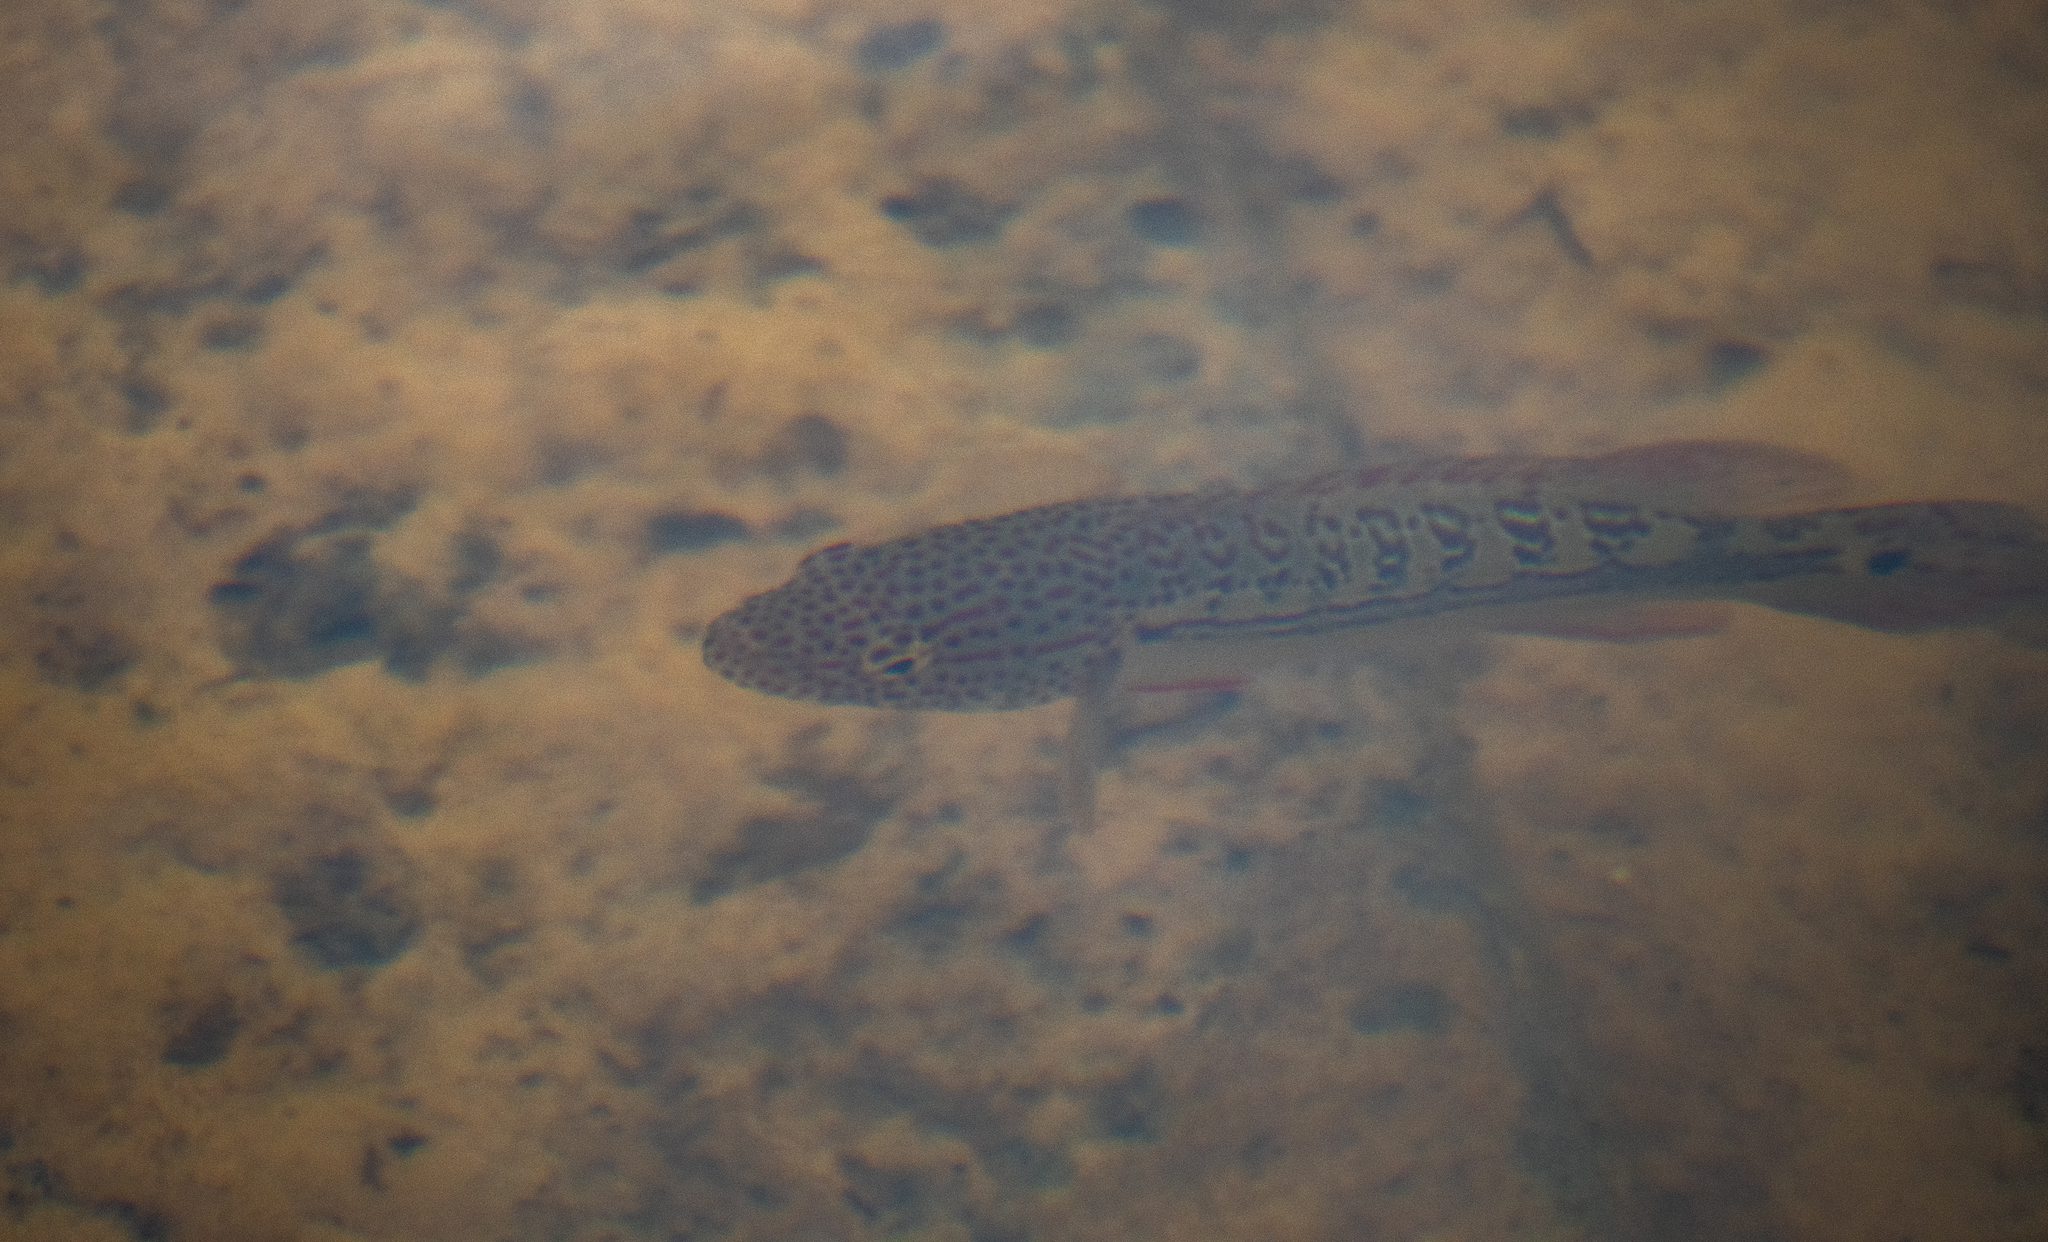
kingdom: Animalia
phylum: Chordata
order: Perciformes
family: Cichlidae
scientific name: Cichlidae
